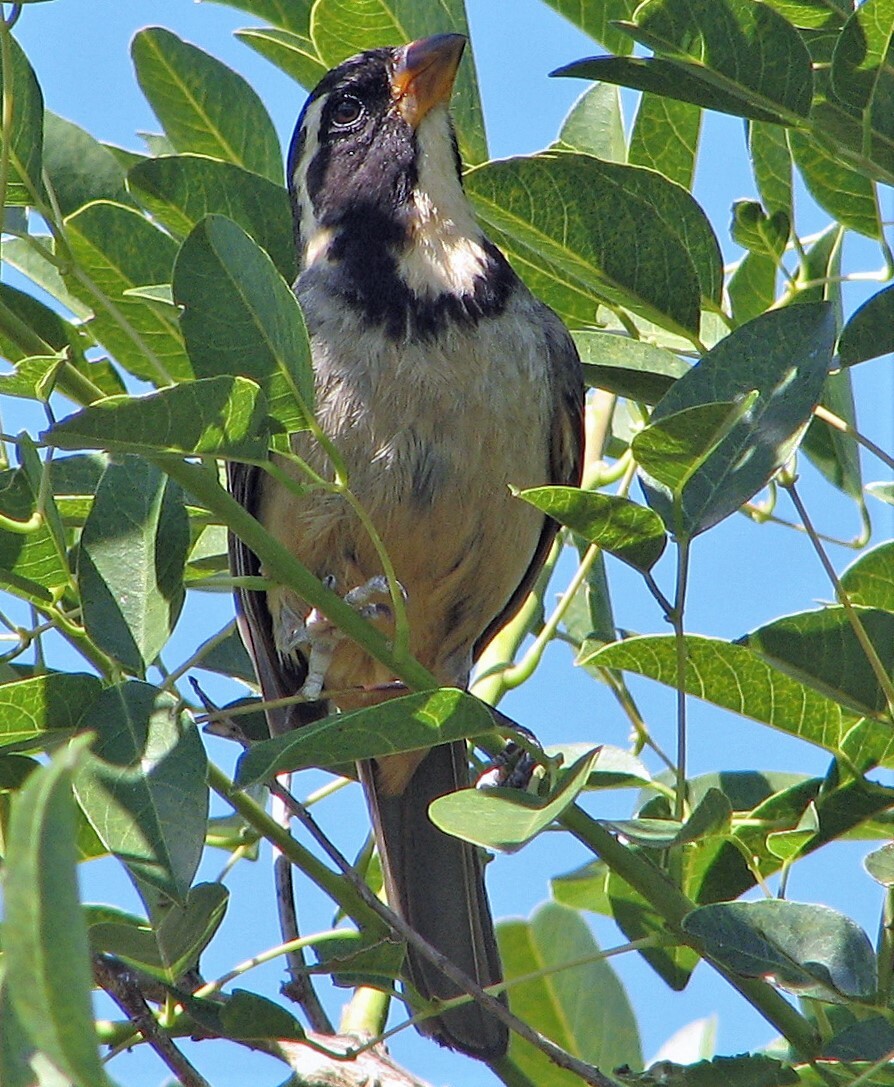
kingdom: Animalia
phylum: Chordata
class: Aves
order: Passeriformes
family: Thraupidae
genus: Saltator
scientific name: Saltator aurantiirostris
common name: Golden-billed saltator
